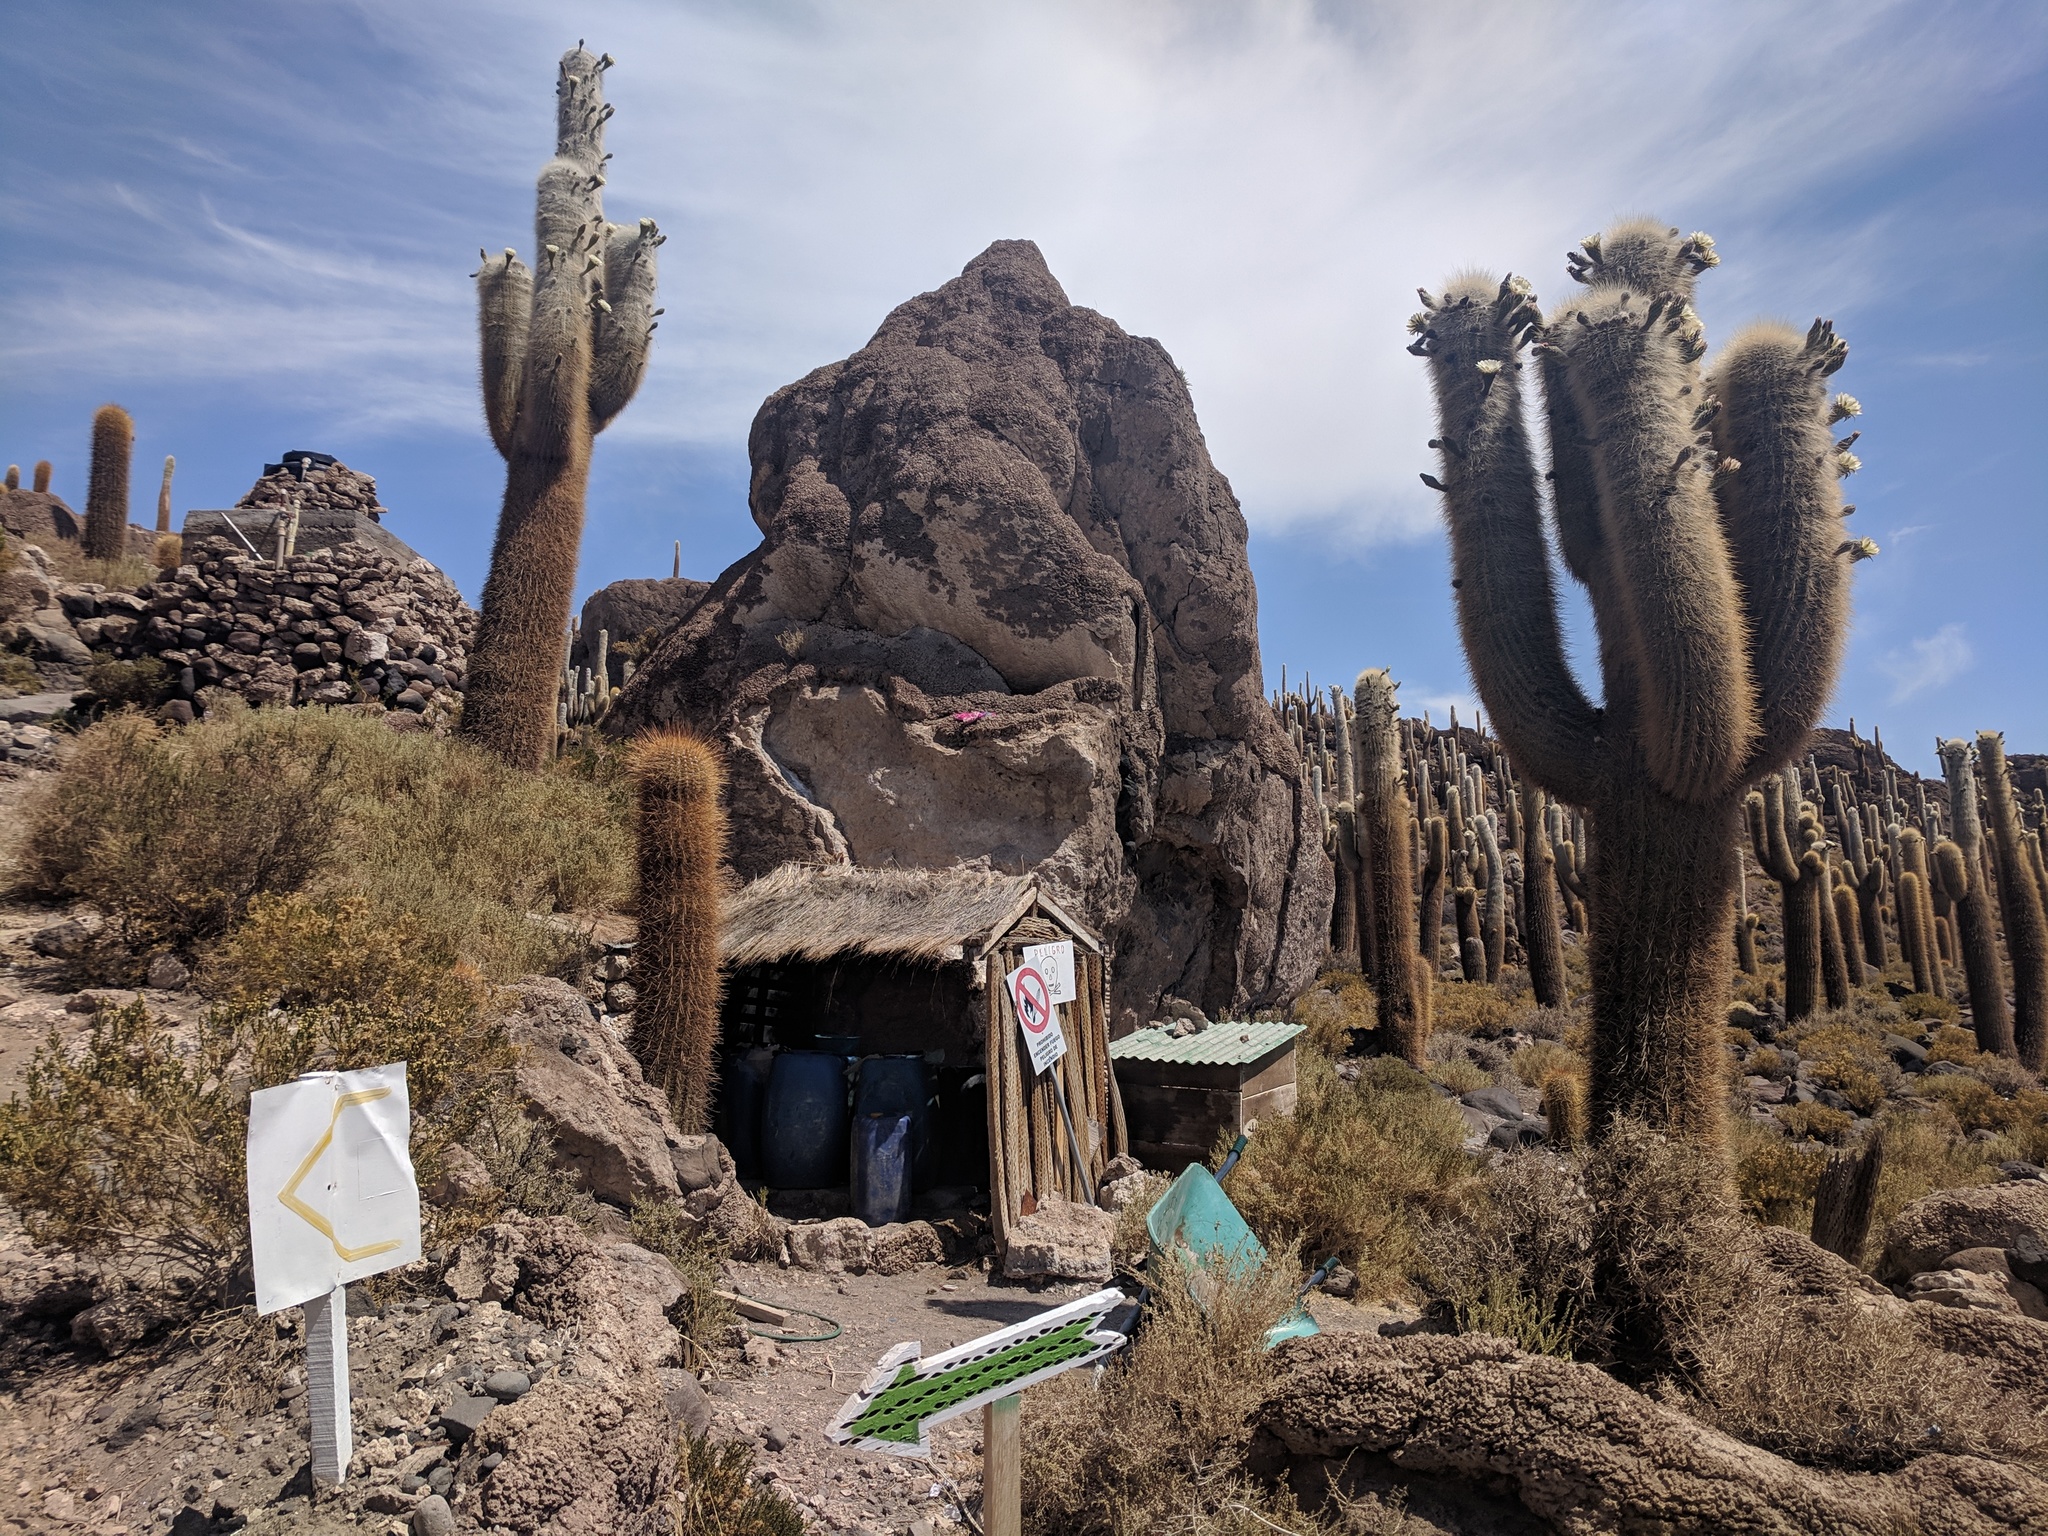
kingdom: Plantae
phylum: Tracheophyta
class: Magnoliopsida
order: Caryophyllales
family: Cactaceae
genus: Leucostele
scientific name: Leucostele atacamensis
